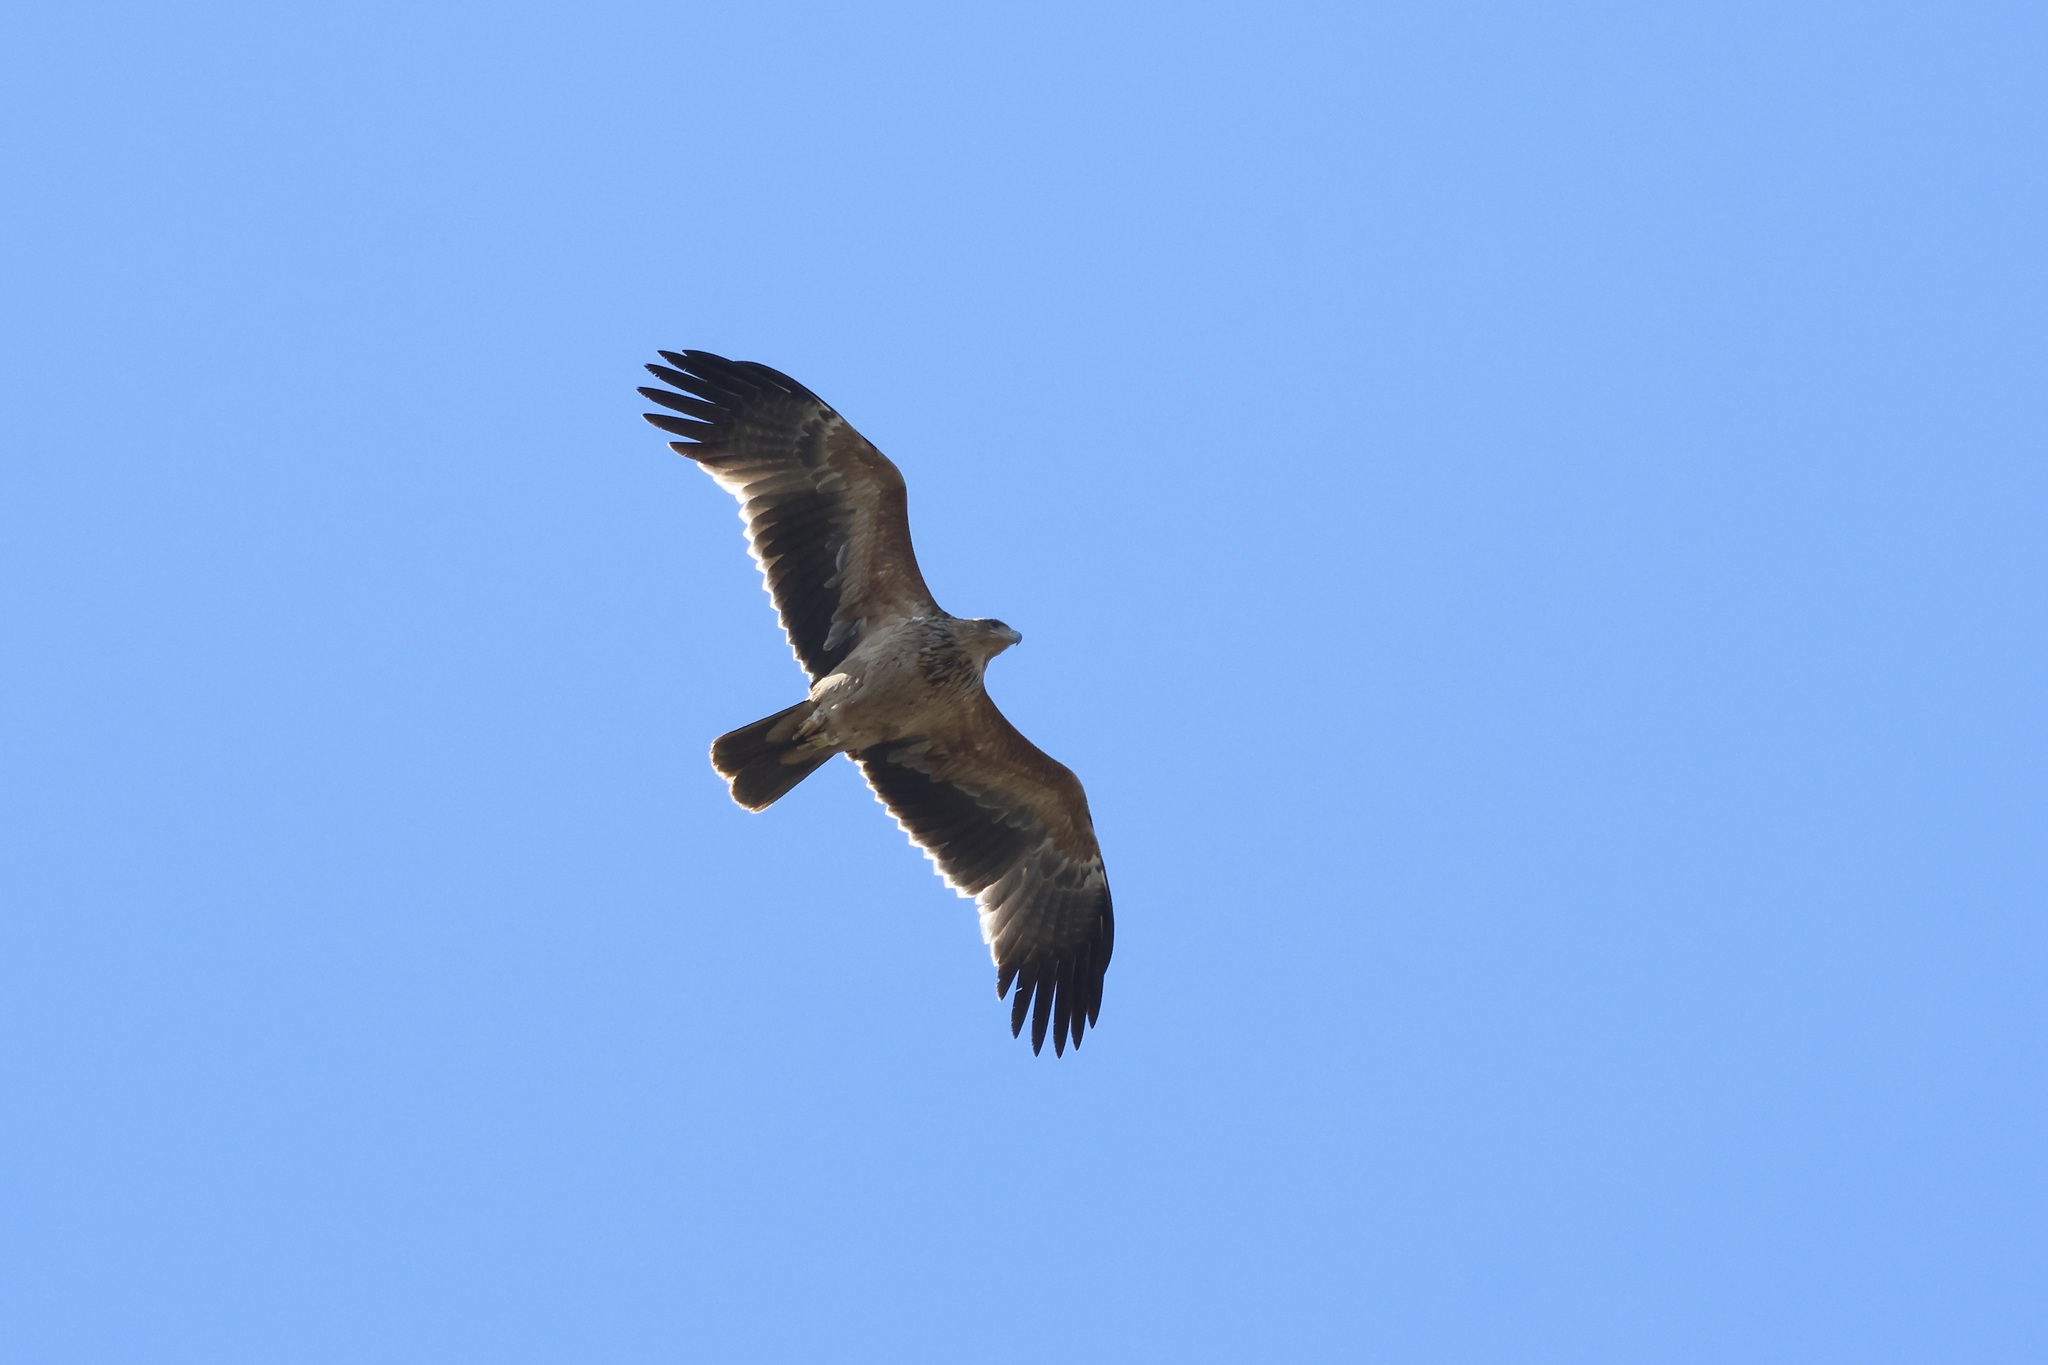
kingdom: Animalia
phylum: Chordata
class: Aves
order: Accipitriformes
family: Accipitridae
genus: Aquila
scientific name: Aquila adalberti
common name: Spanish imperial eagle
